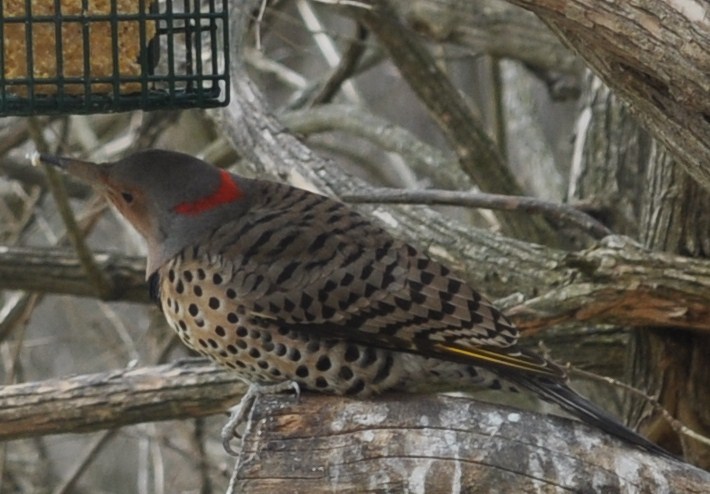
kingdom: Animalia
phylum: Chordata
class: Aves
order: Piciformes
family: Picidae
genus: Colaptes
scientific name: Colaptes auratus
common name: Northern flicker
